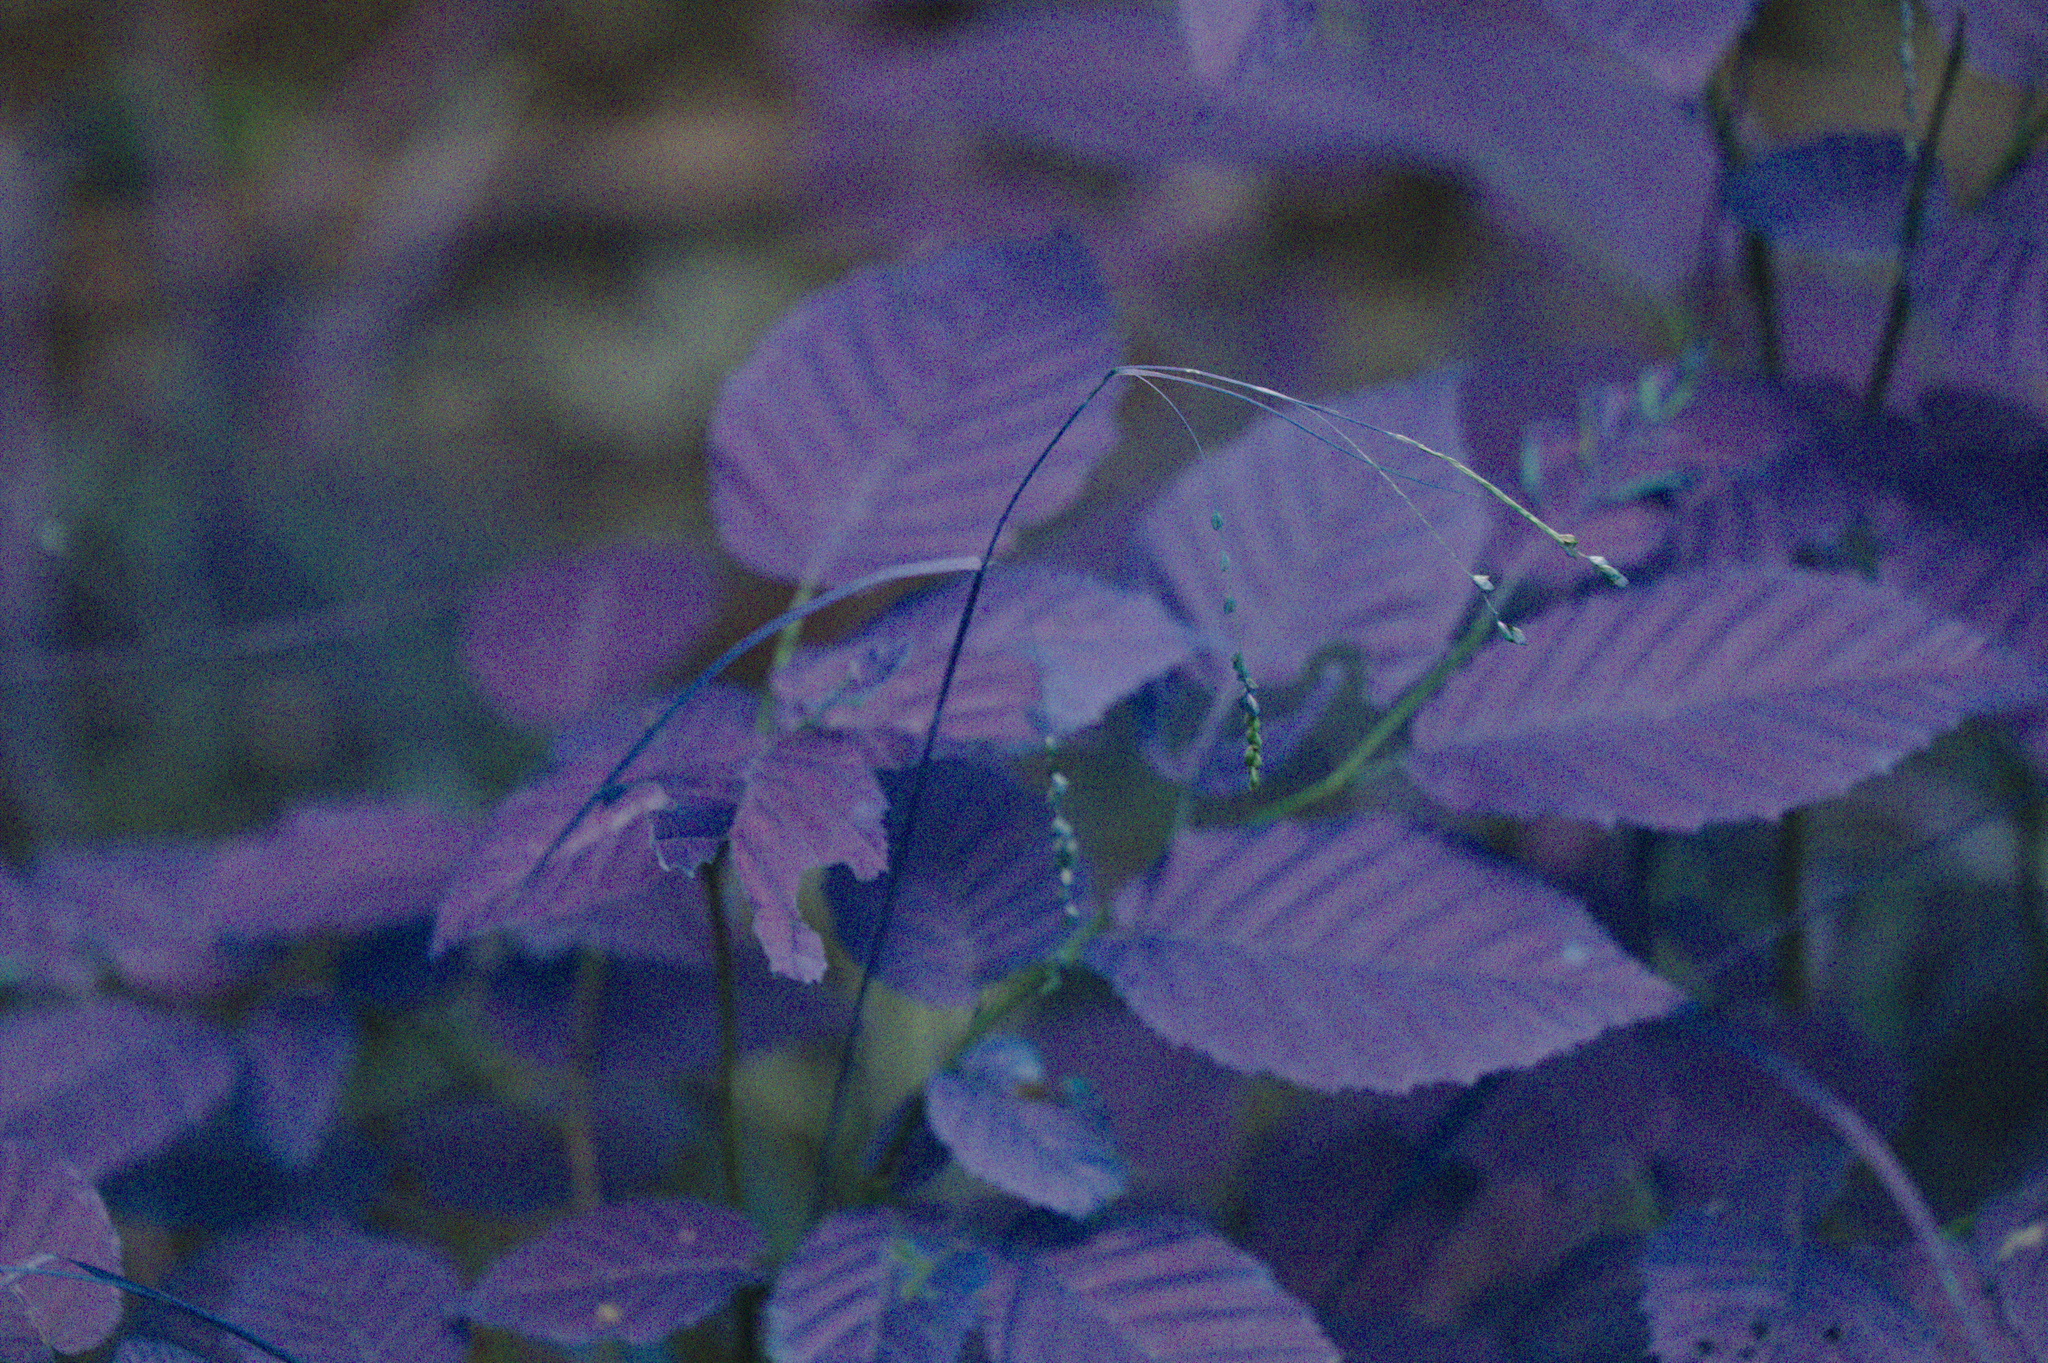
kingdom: Plantae
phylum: Tracheophyta
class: Liliopsida
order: Poales
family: Cyperaceae
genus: Carex
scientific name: Carex gracillima
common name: Graceful sedge
